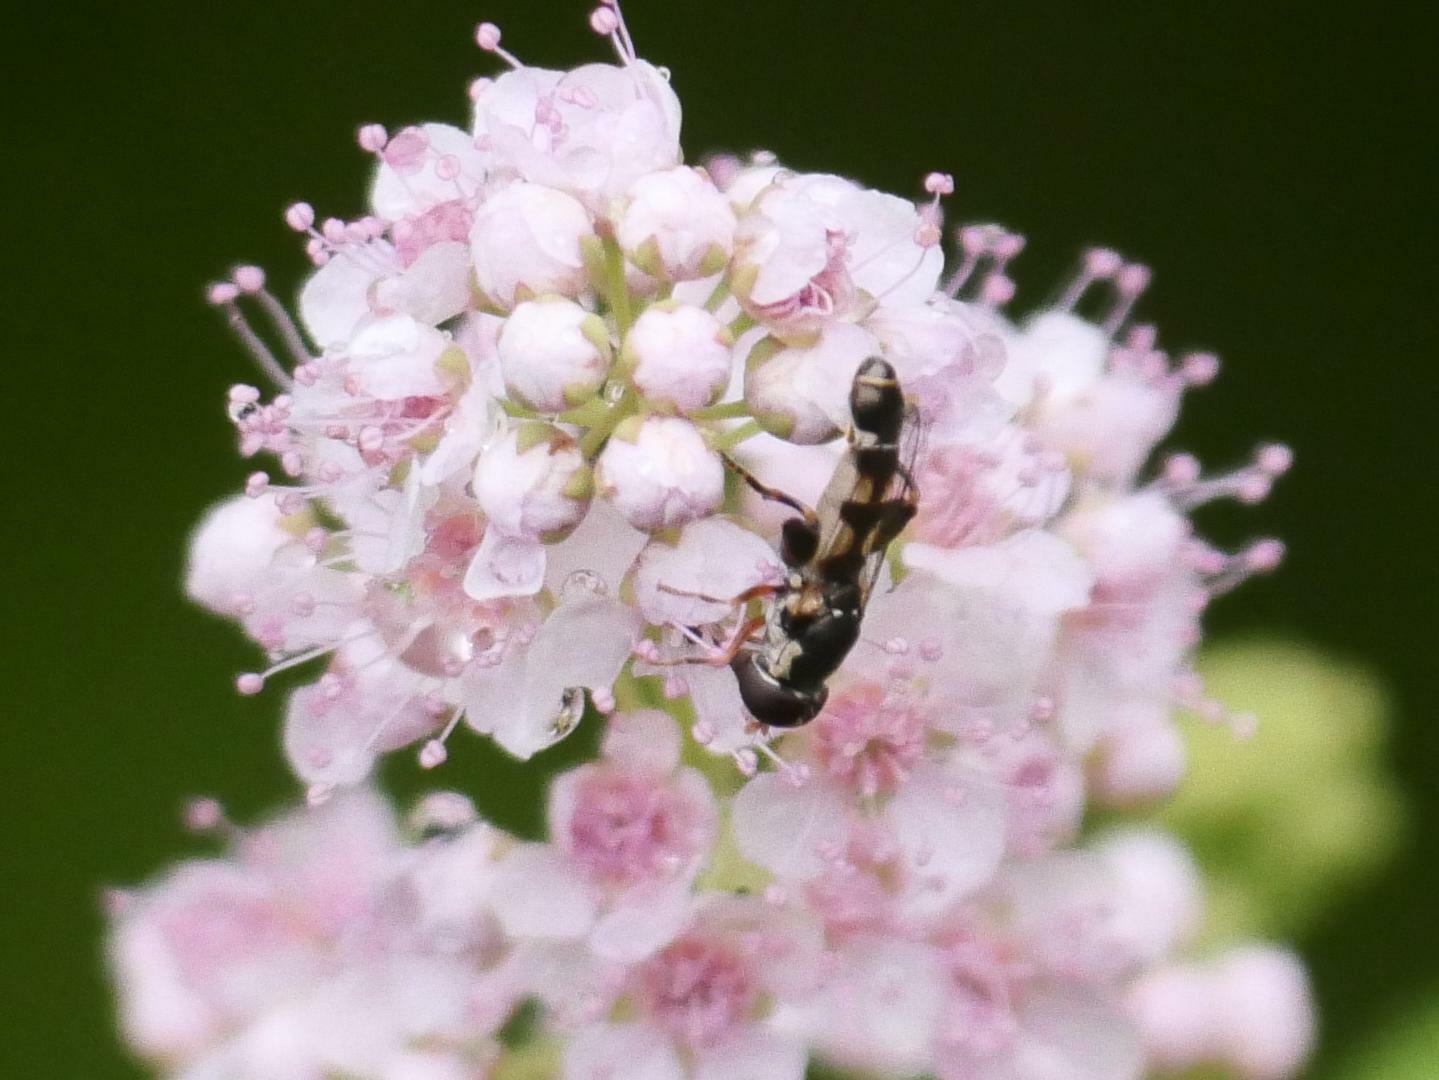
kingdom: Animalia
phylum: Arthropoda
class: Insecta
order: Diptera
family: Syrphidae
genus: Syritta
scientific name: Syritta pipiens
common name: Hover fly
